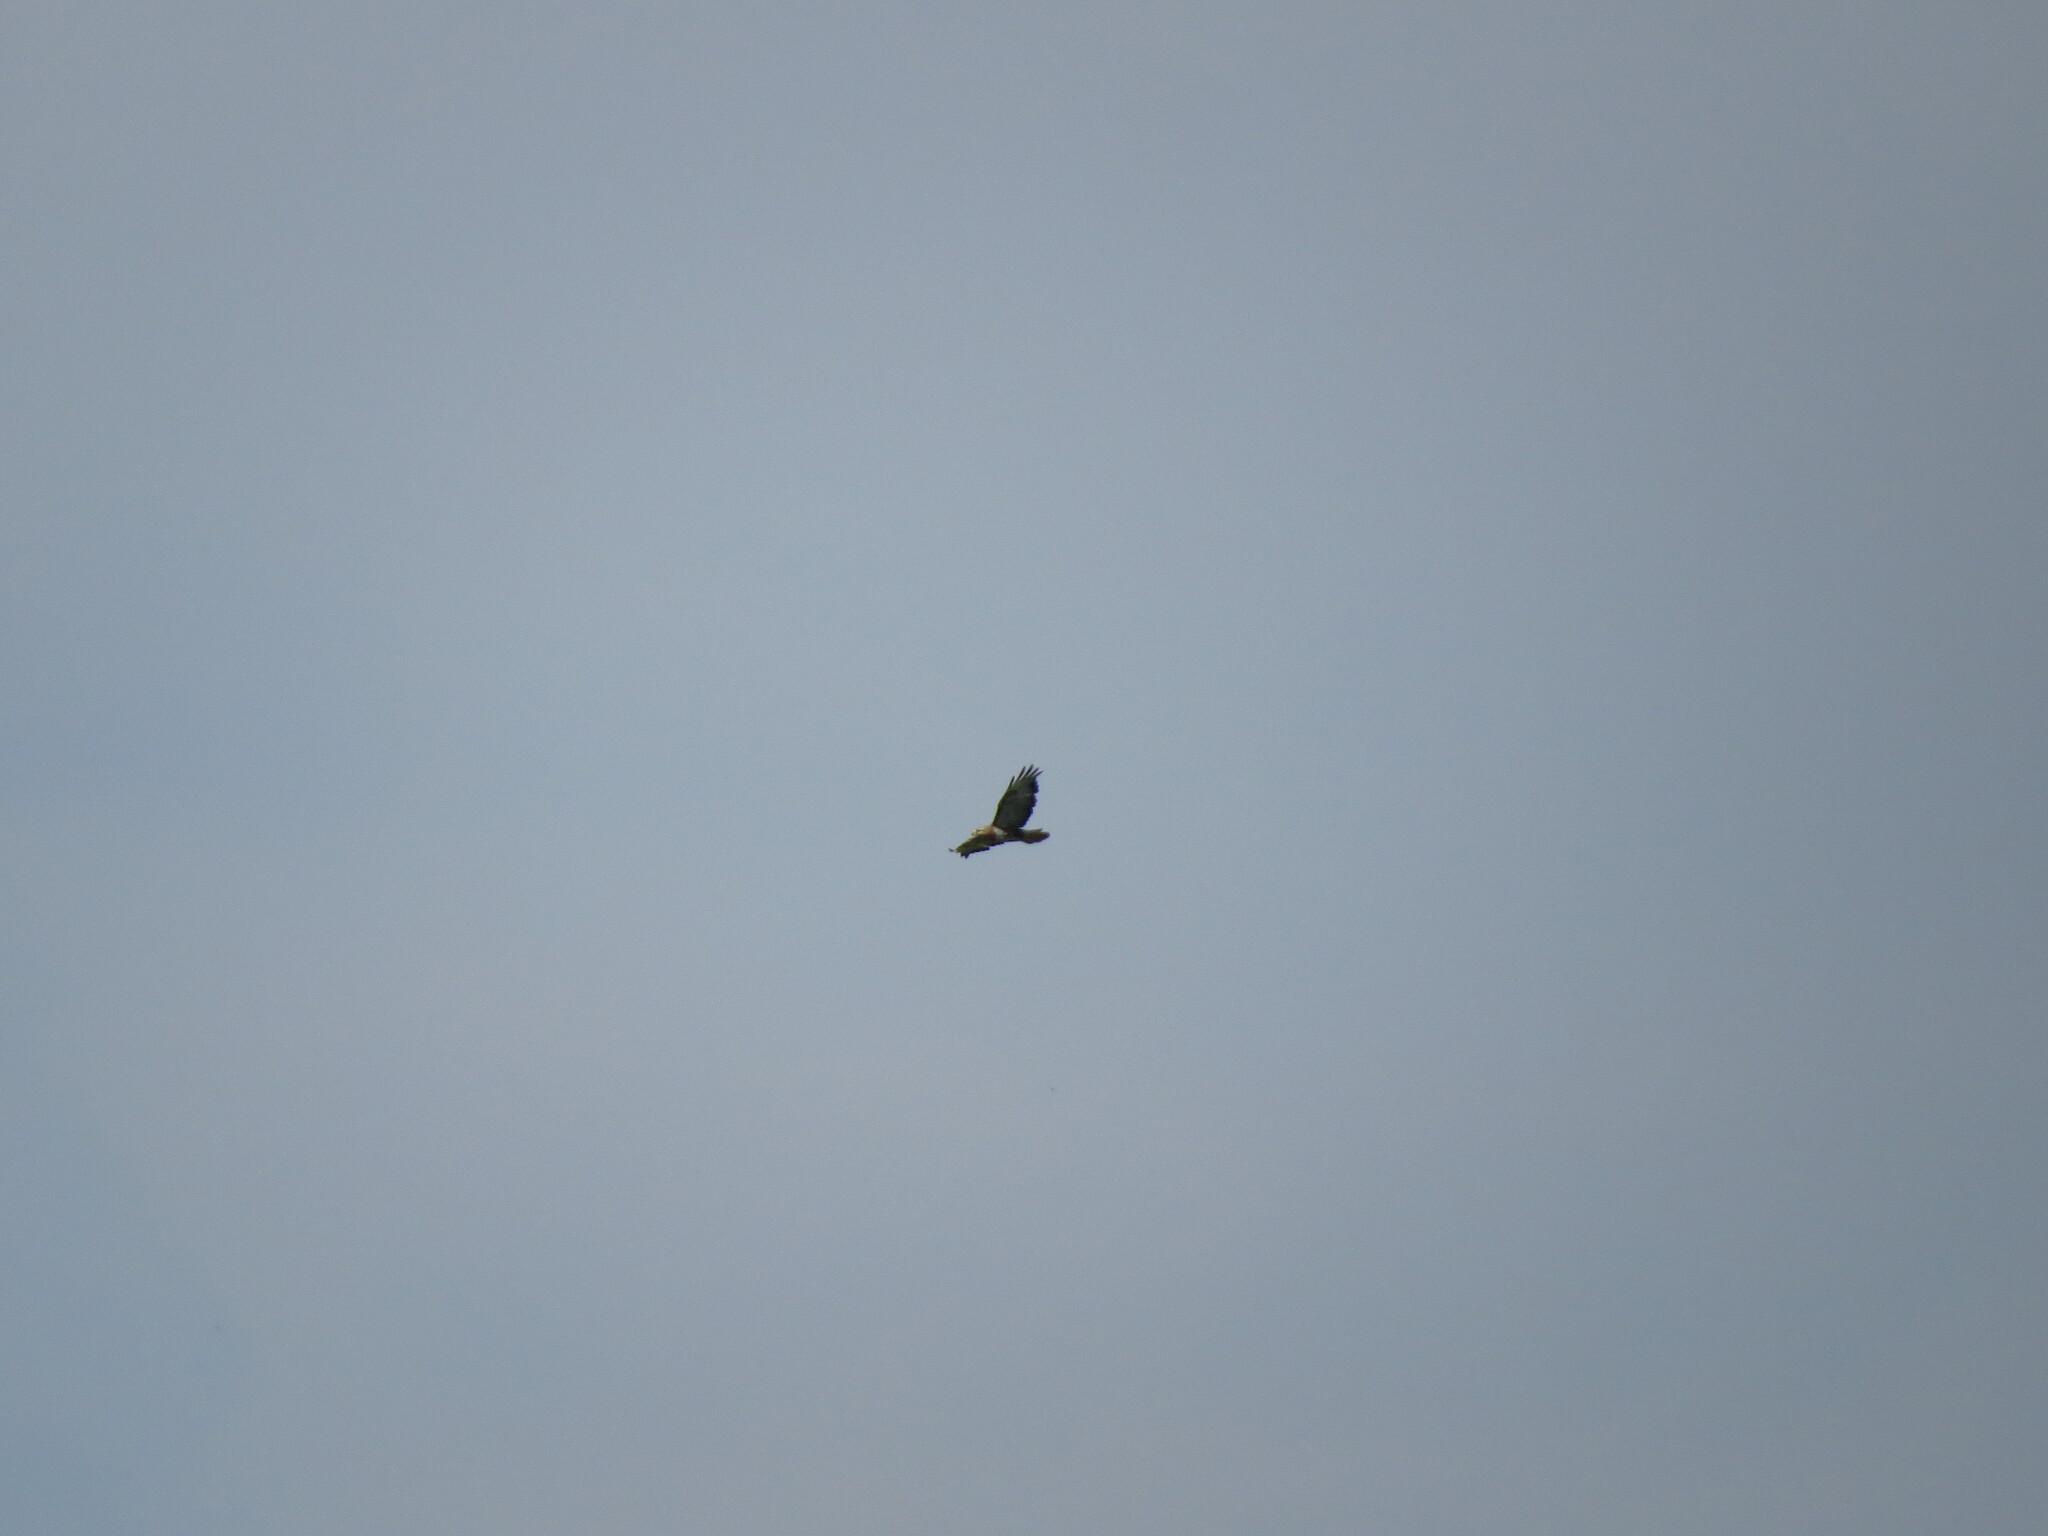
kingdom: Animalia
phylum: Chordata
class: Aves
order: Accipitriformes
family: Accipitridae
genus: Buteo
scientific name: Buteo buteo
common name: Common buzzard
